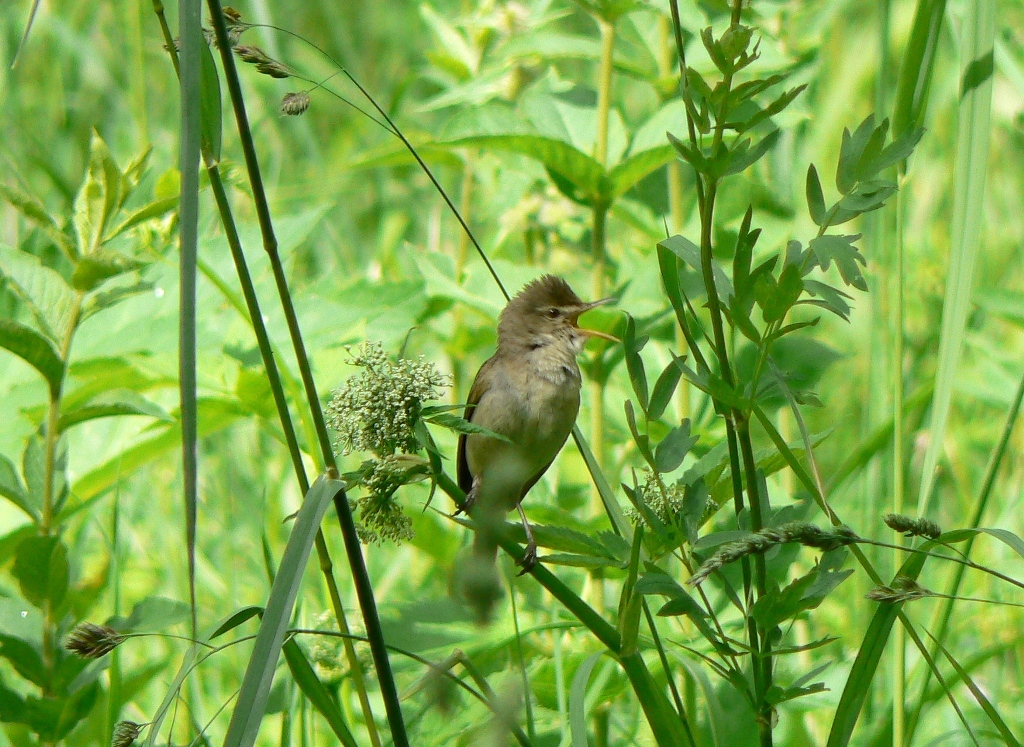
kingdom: Animalia
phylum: Chordata
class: Aves
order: Passeriformes
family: Acrocephalidae
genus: Acrocephalus
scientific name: Acrocephalus dumetorum
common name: Blyth's reed warbler
